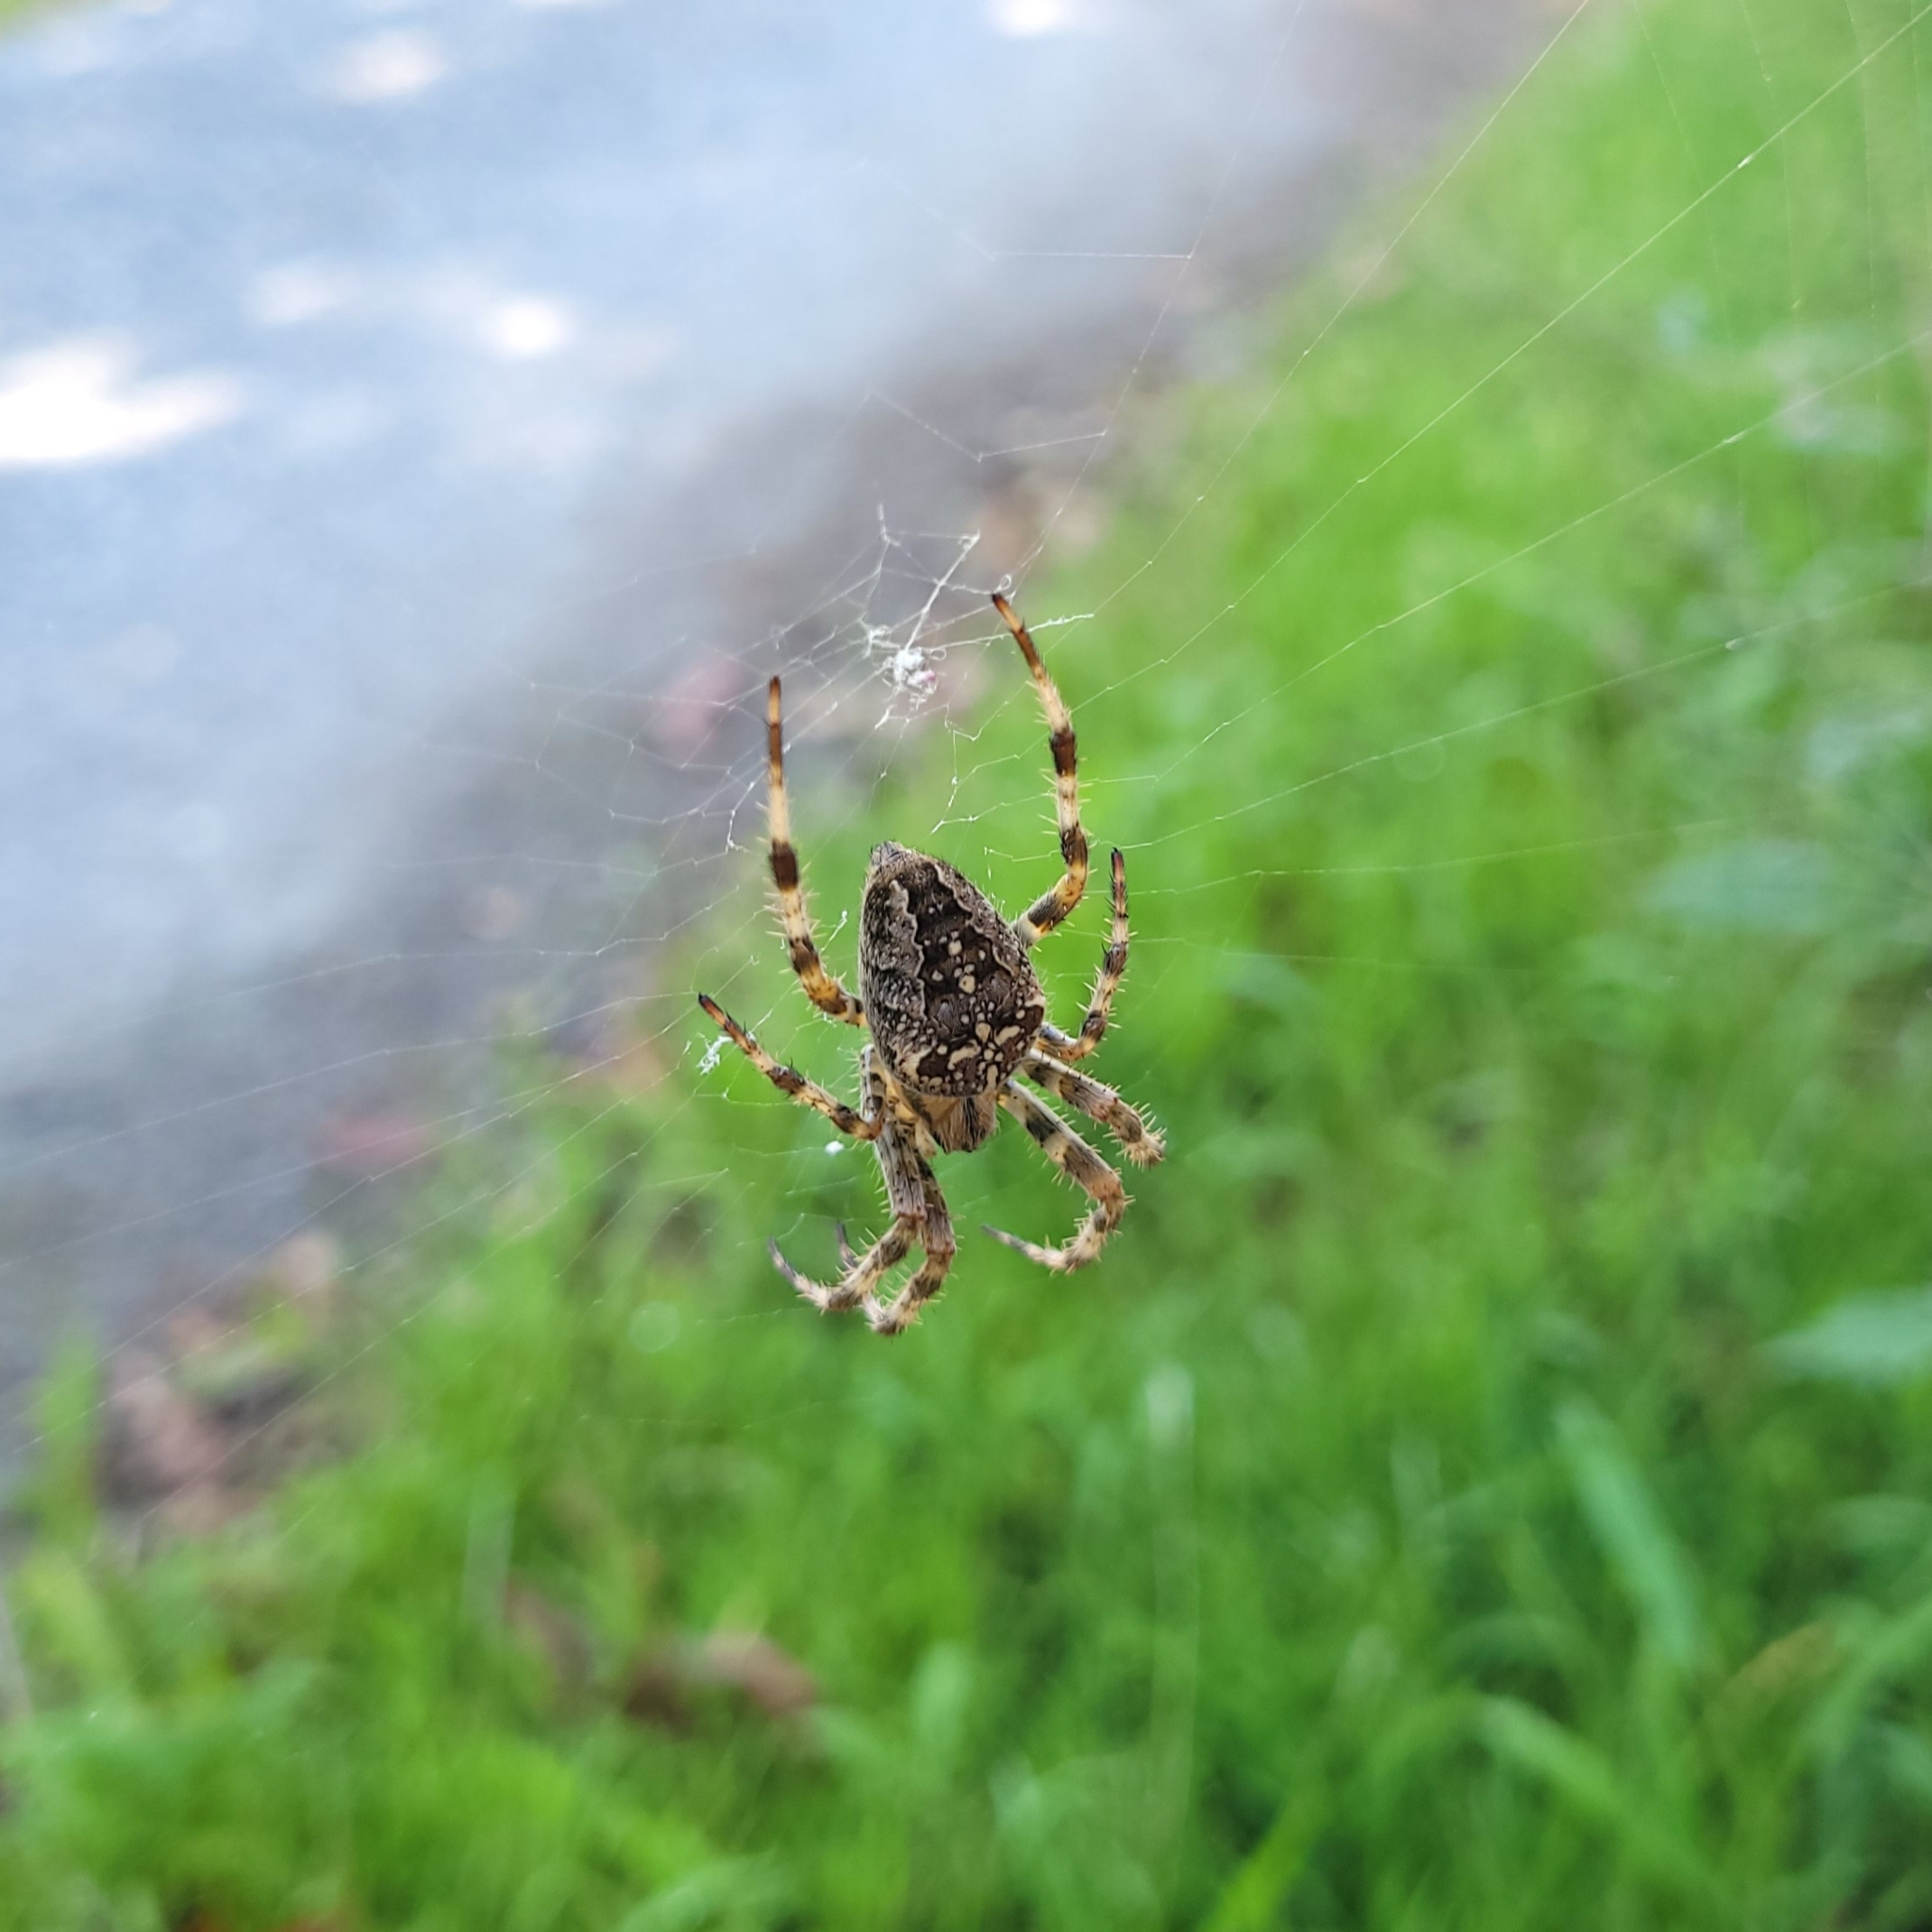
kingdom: Animalia
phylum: Arthropoda
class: Arachnida
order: Araneae
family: Araneidae
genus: Araneus
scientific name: Araneus diadematus
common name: Cross orbweaver
